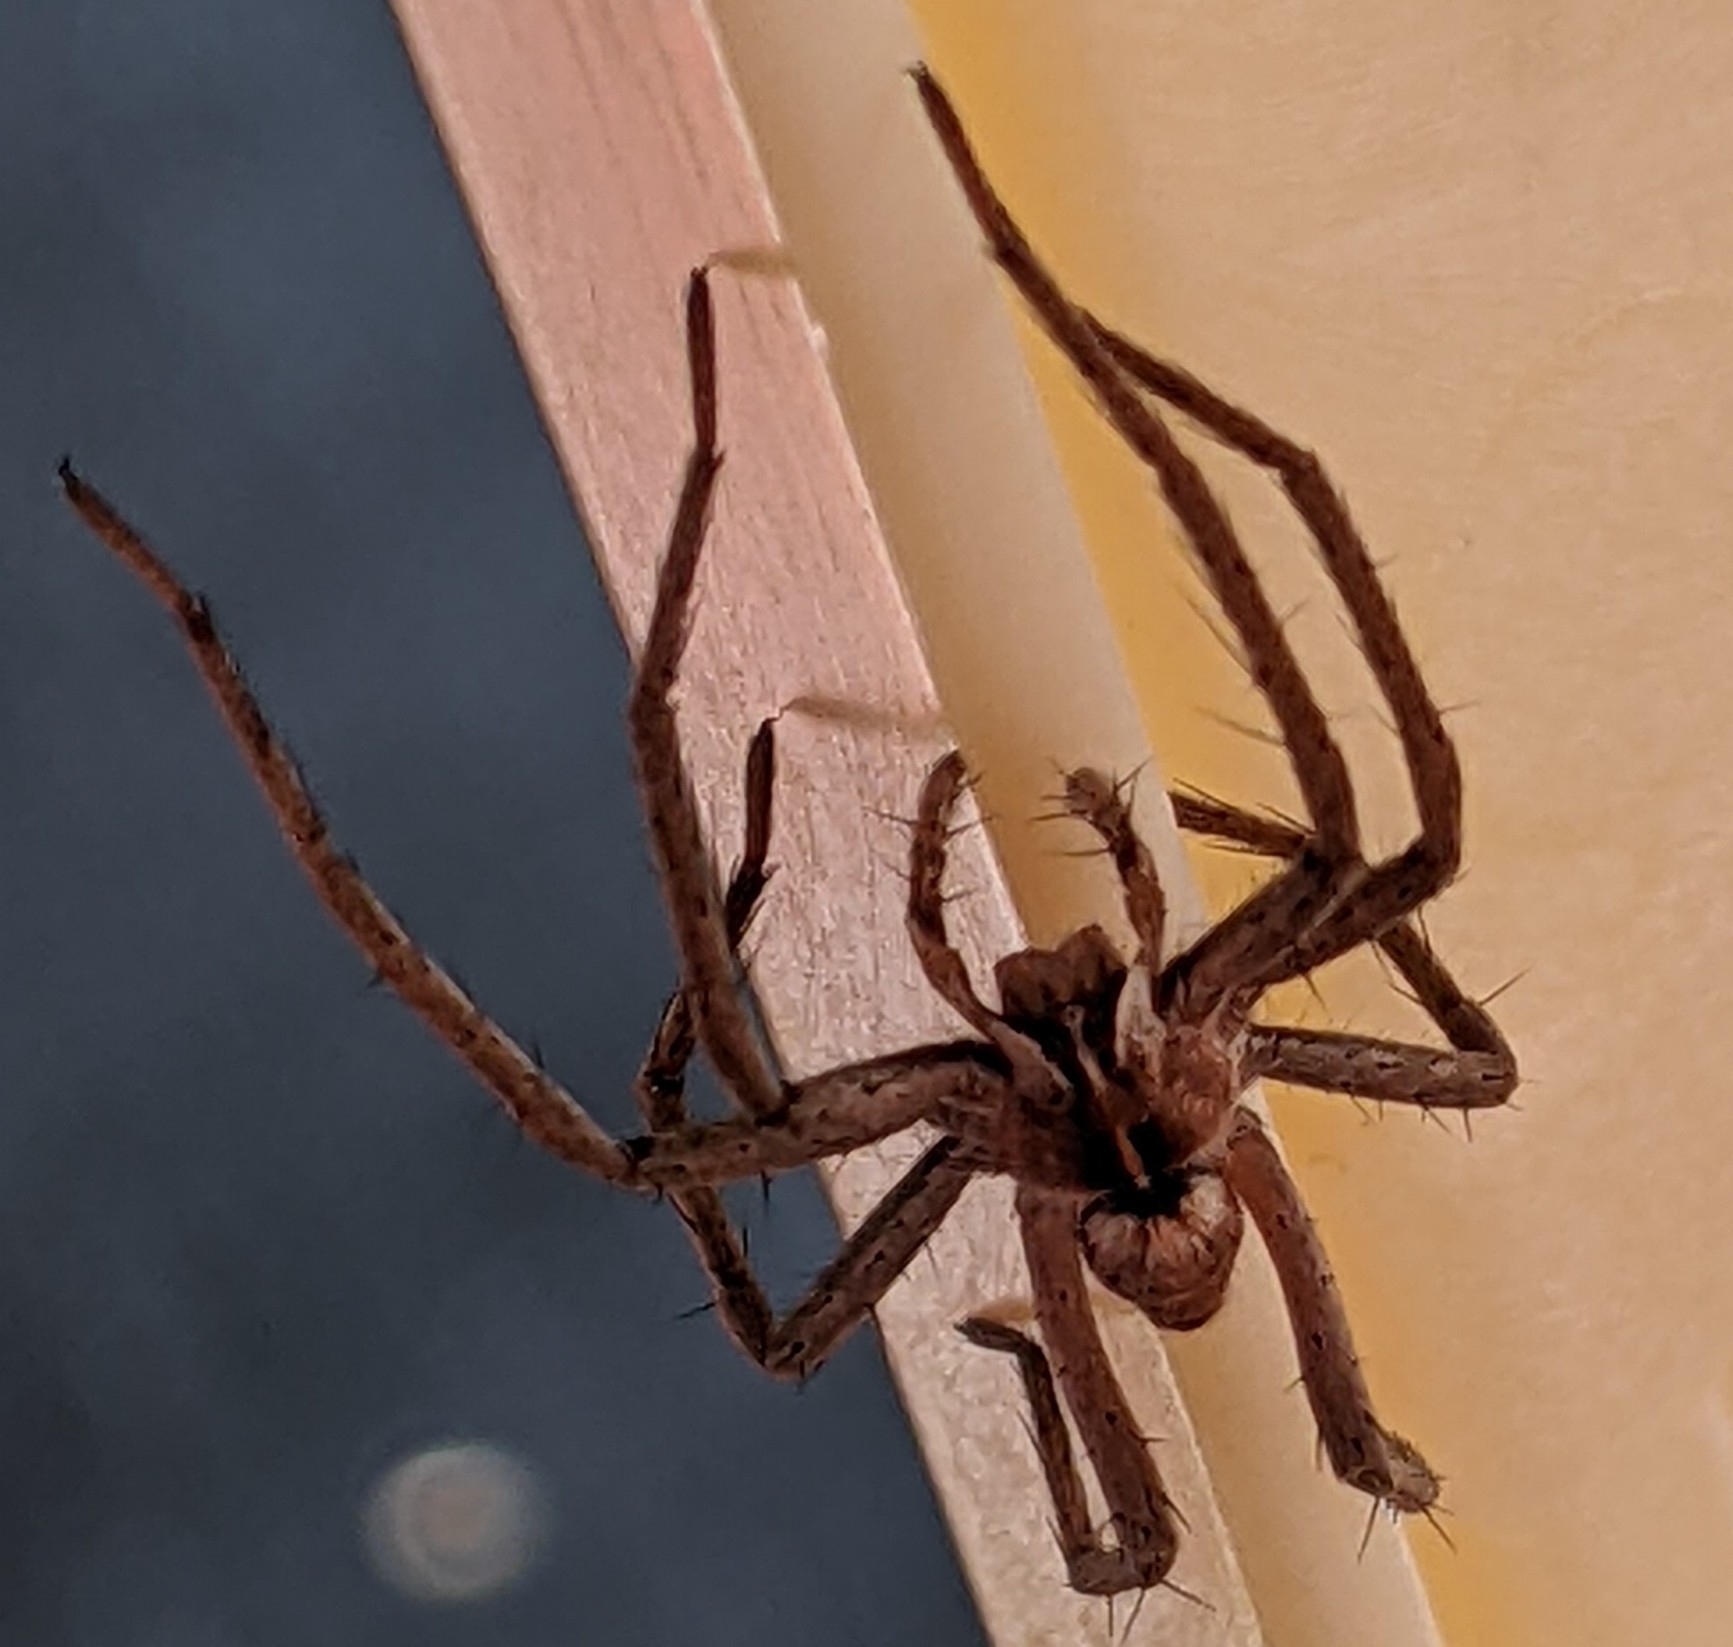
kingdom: Animalia
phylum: Arthropoda
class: Arachnida
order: Araneae
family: Pisauridae
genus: Pisaura
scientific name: Pisaura mirabilis
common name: Tent spider
